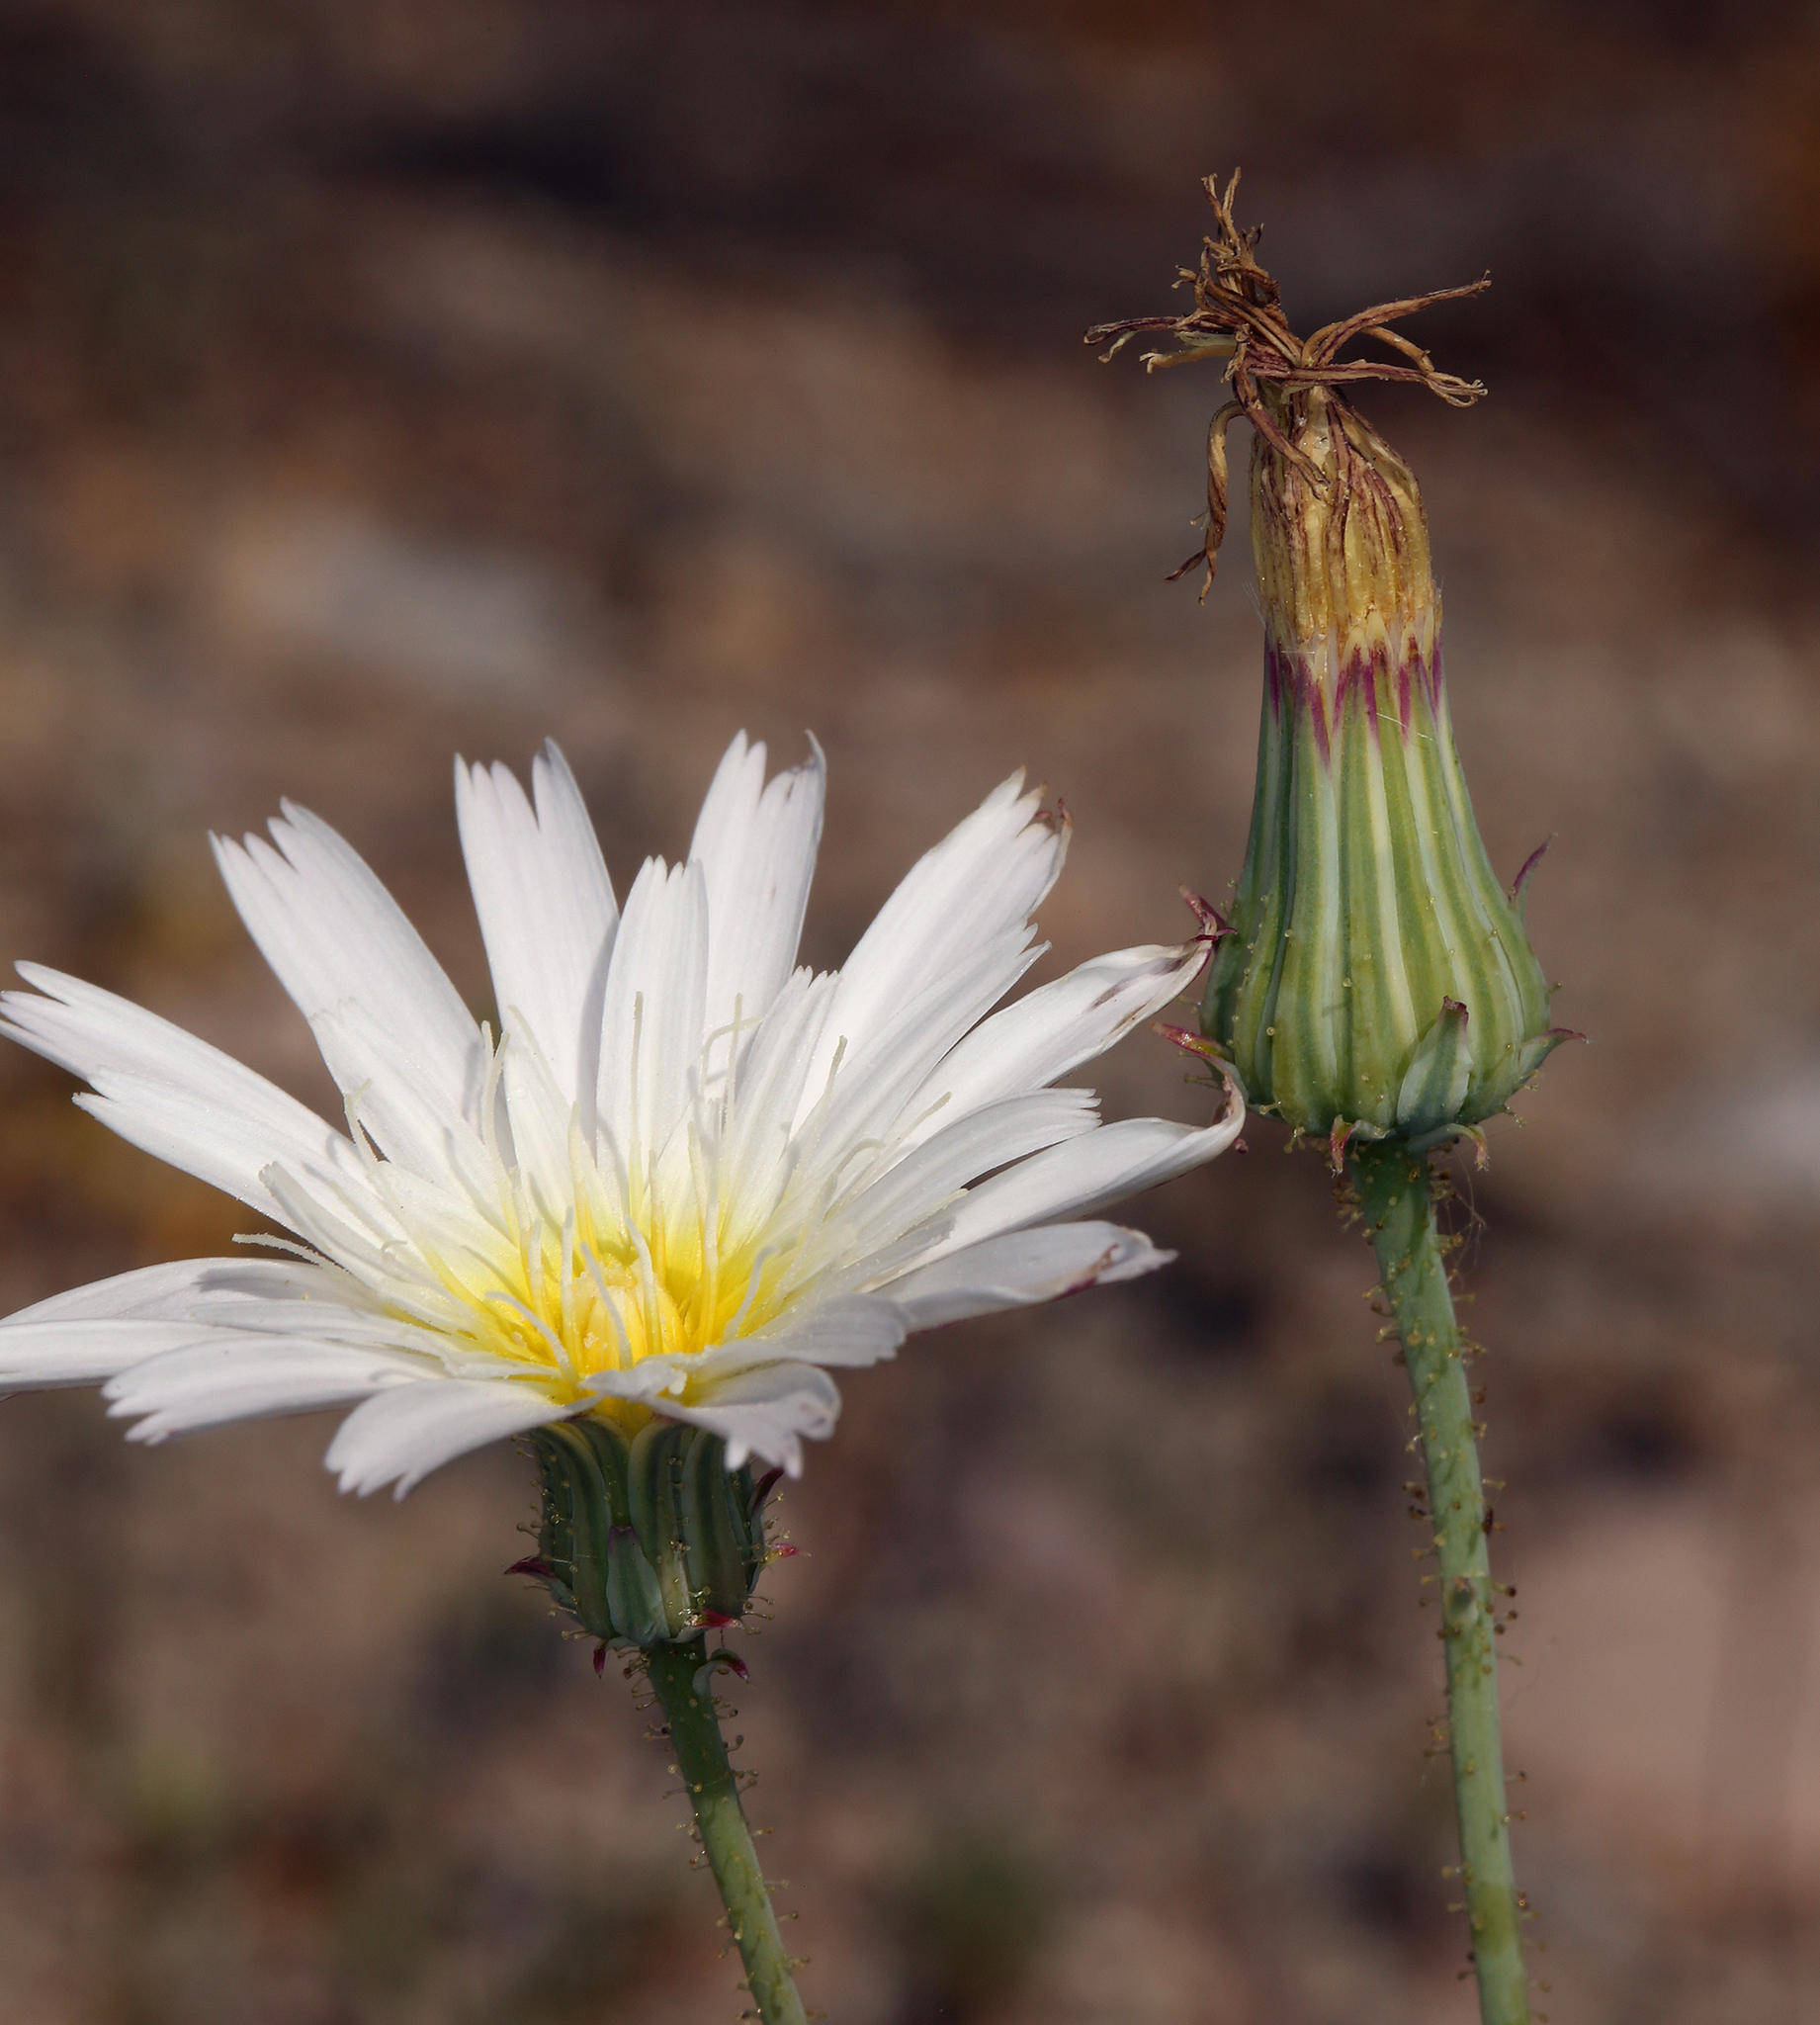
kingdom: Plantae
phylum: Tracheophyta
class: Magnoliopsida
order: Asterales
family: Asteraceae
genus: Calycoseris
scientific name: Calycoseris wrightii
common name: White tackstem
